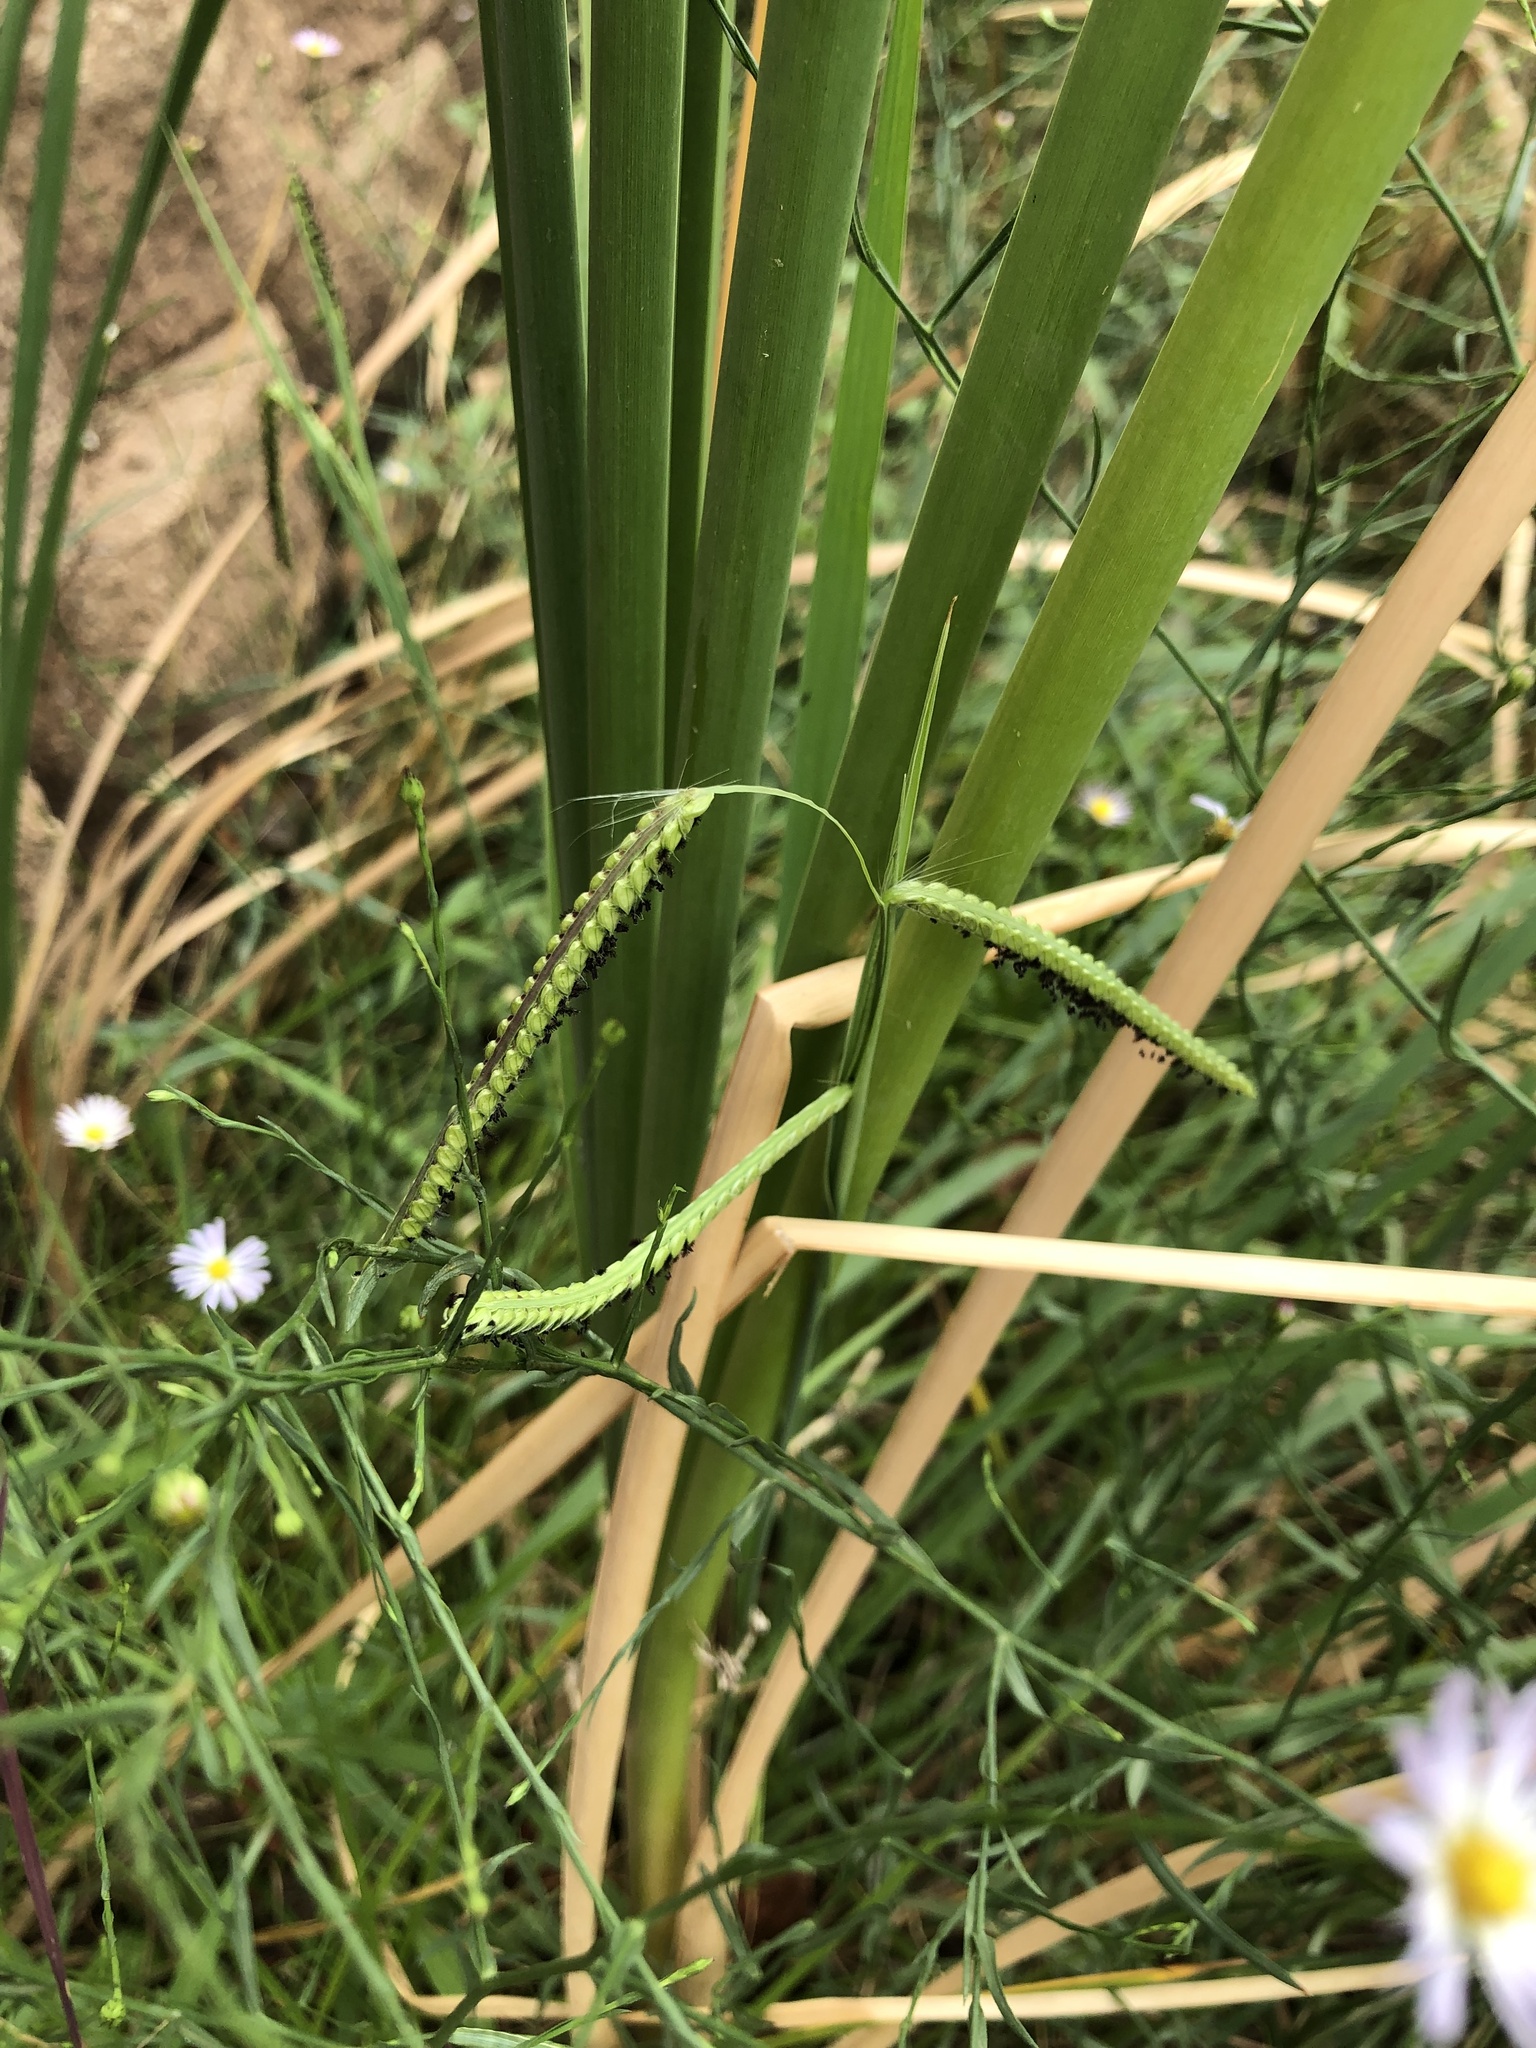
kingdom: Plantae
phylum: Tracheophyta
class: Liliopsida
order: Poales
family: Poaceae
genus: Paspalum
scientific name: Paspalum dilatatum
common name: Dallisgrass
